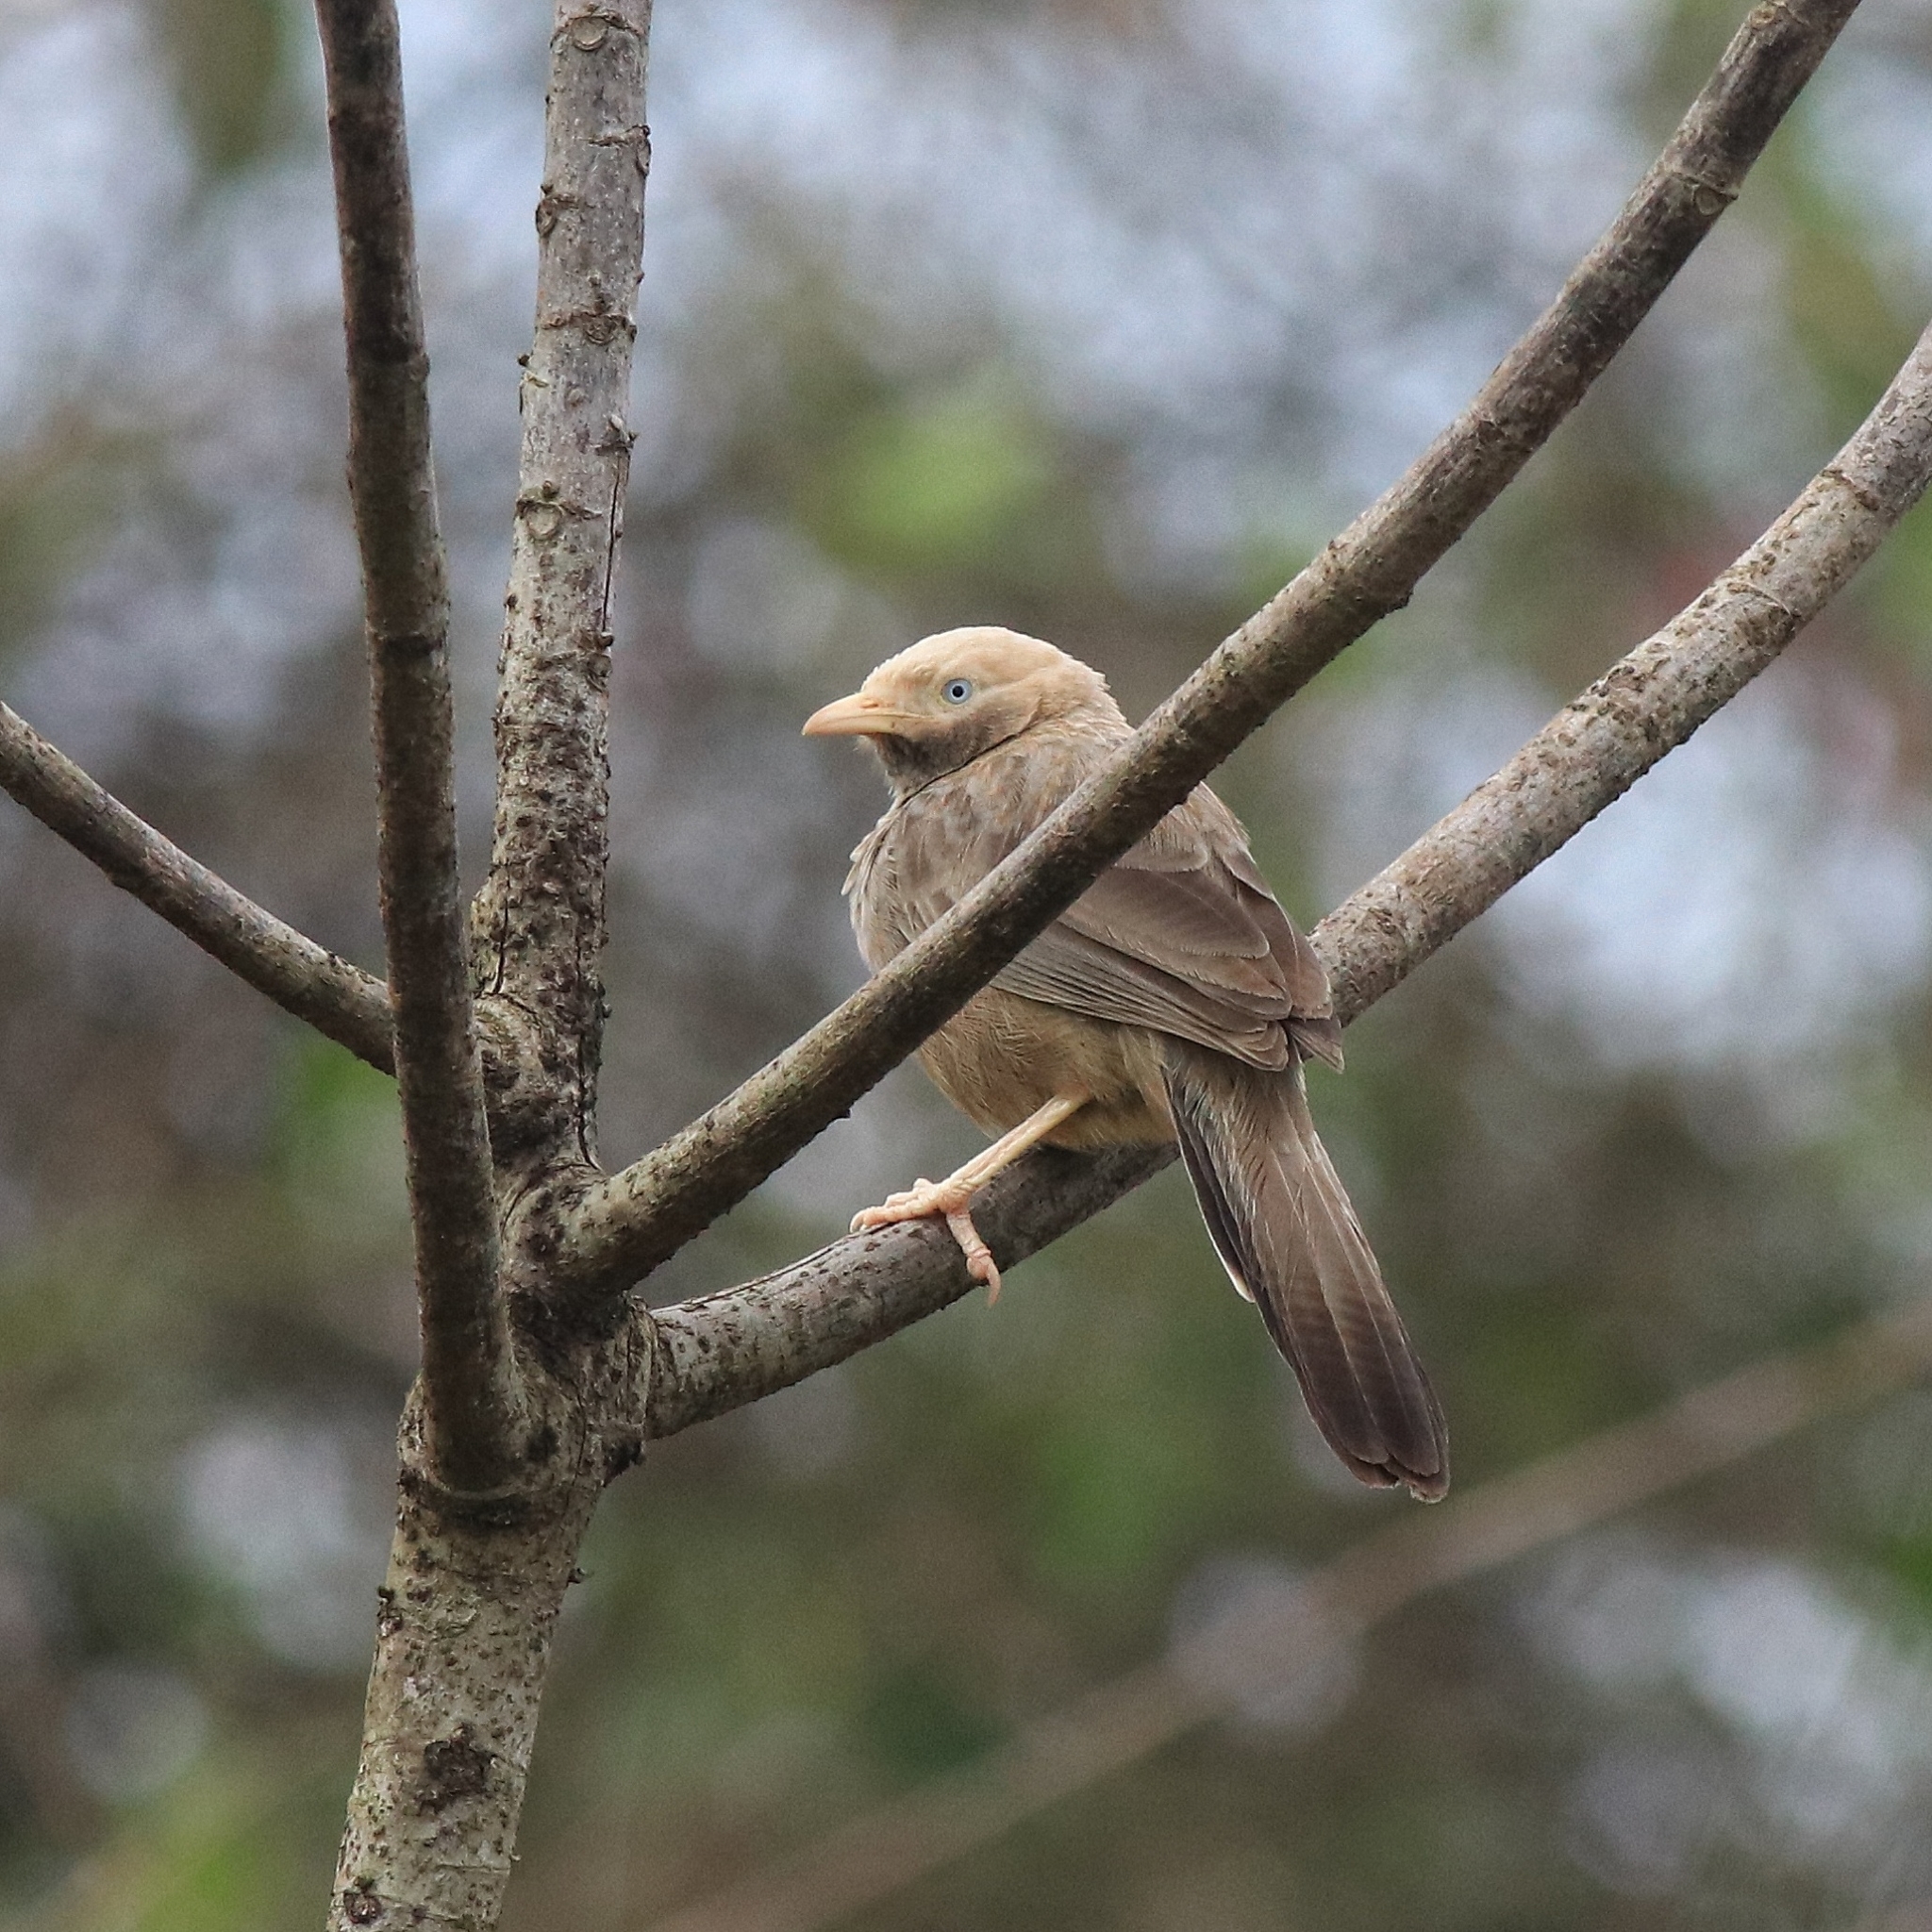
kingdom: Animalia
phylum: Chordata
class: Aves
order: Passeriformes
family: Leiothrichidae
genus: Turdoides
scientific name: Turdoides affinis
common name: Yellow-billed babbler
